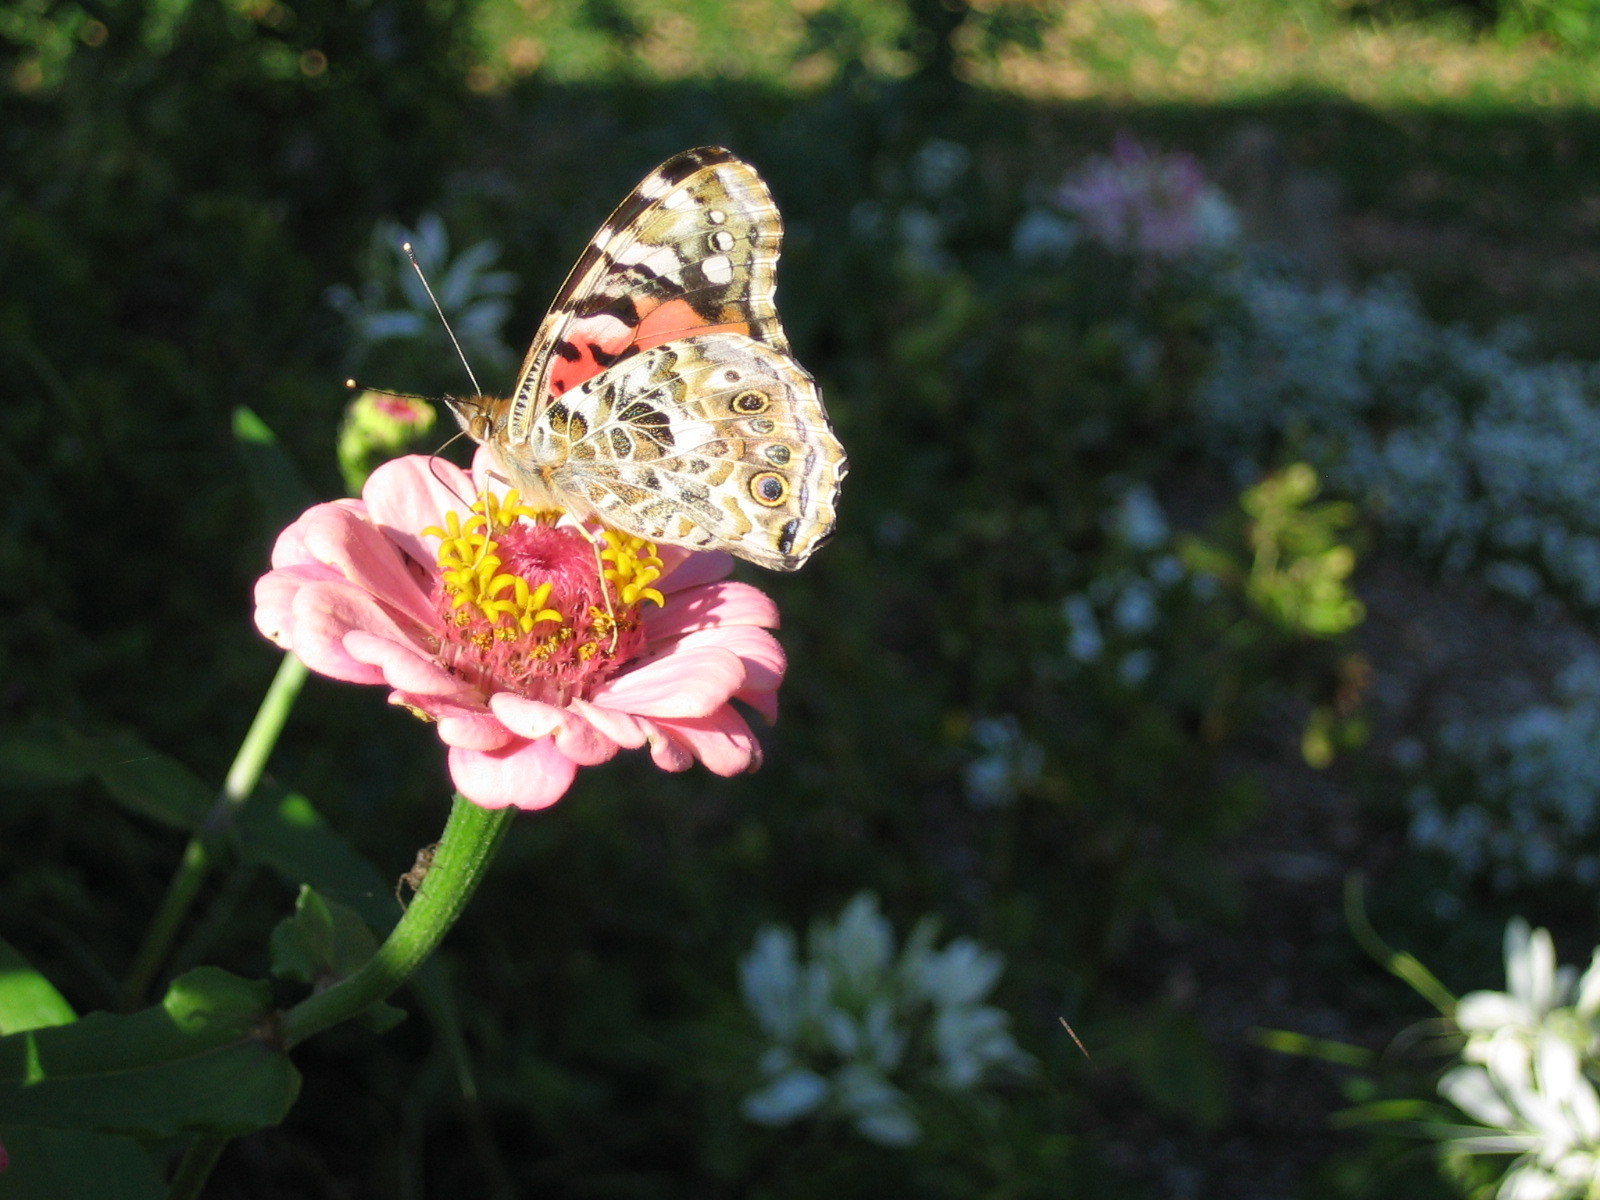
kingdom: Animalia
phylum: Arthropoda
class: Insecta
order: Lepidoptera
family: Nymphalidae
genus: Vanessa
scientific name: Vanessa cardui
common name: Painted lady
